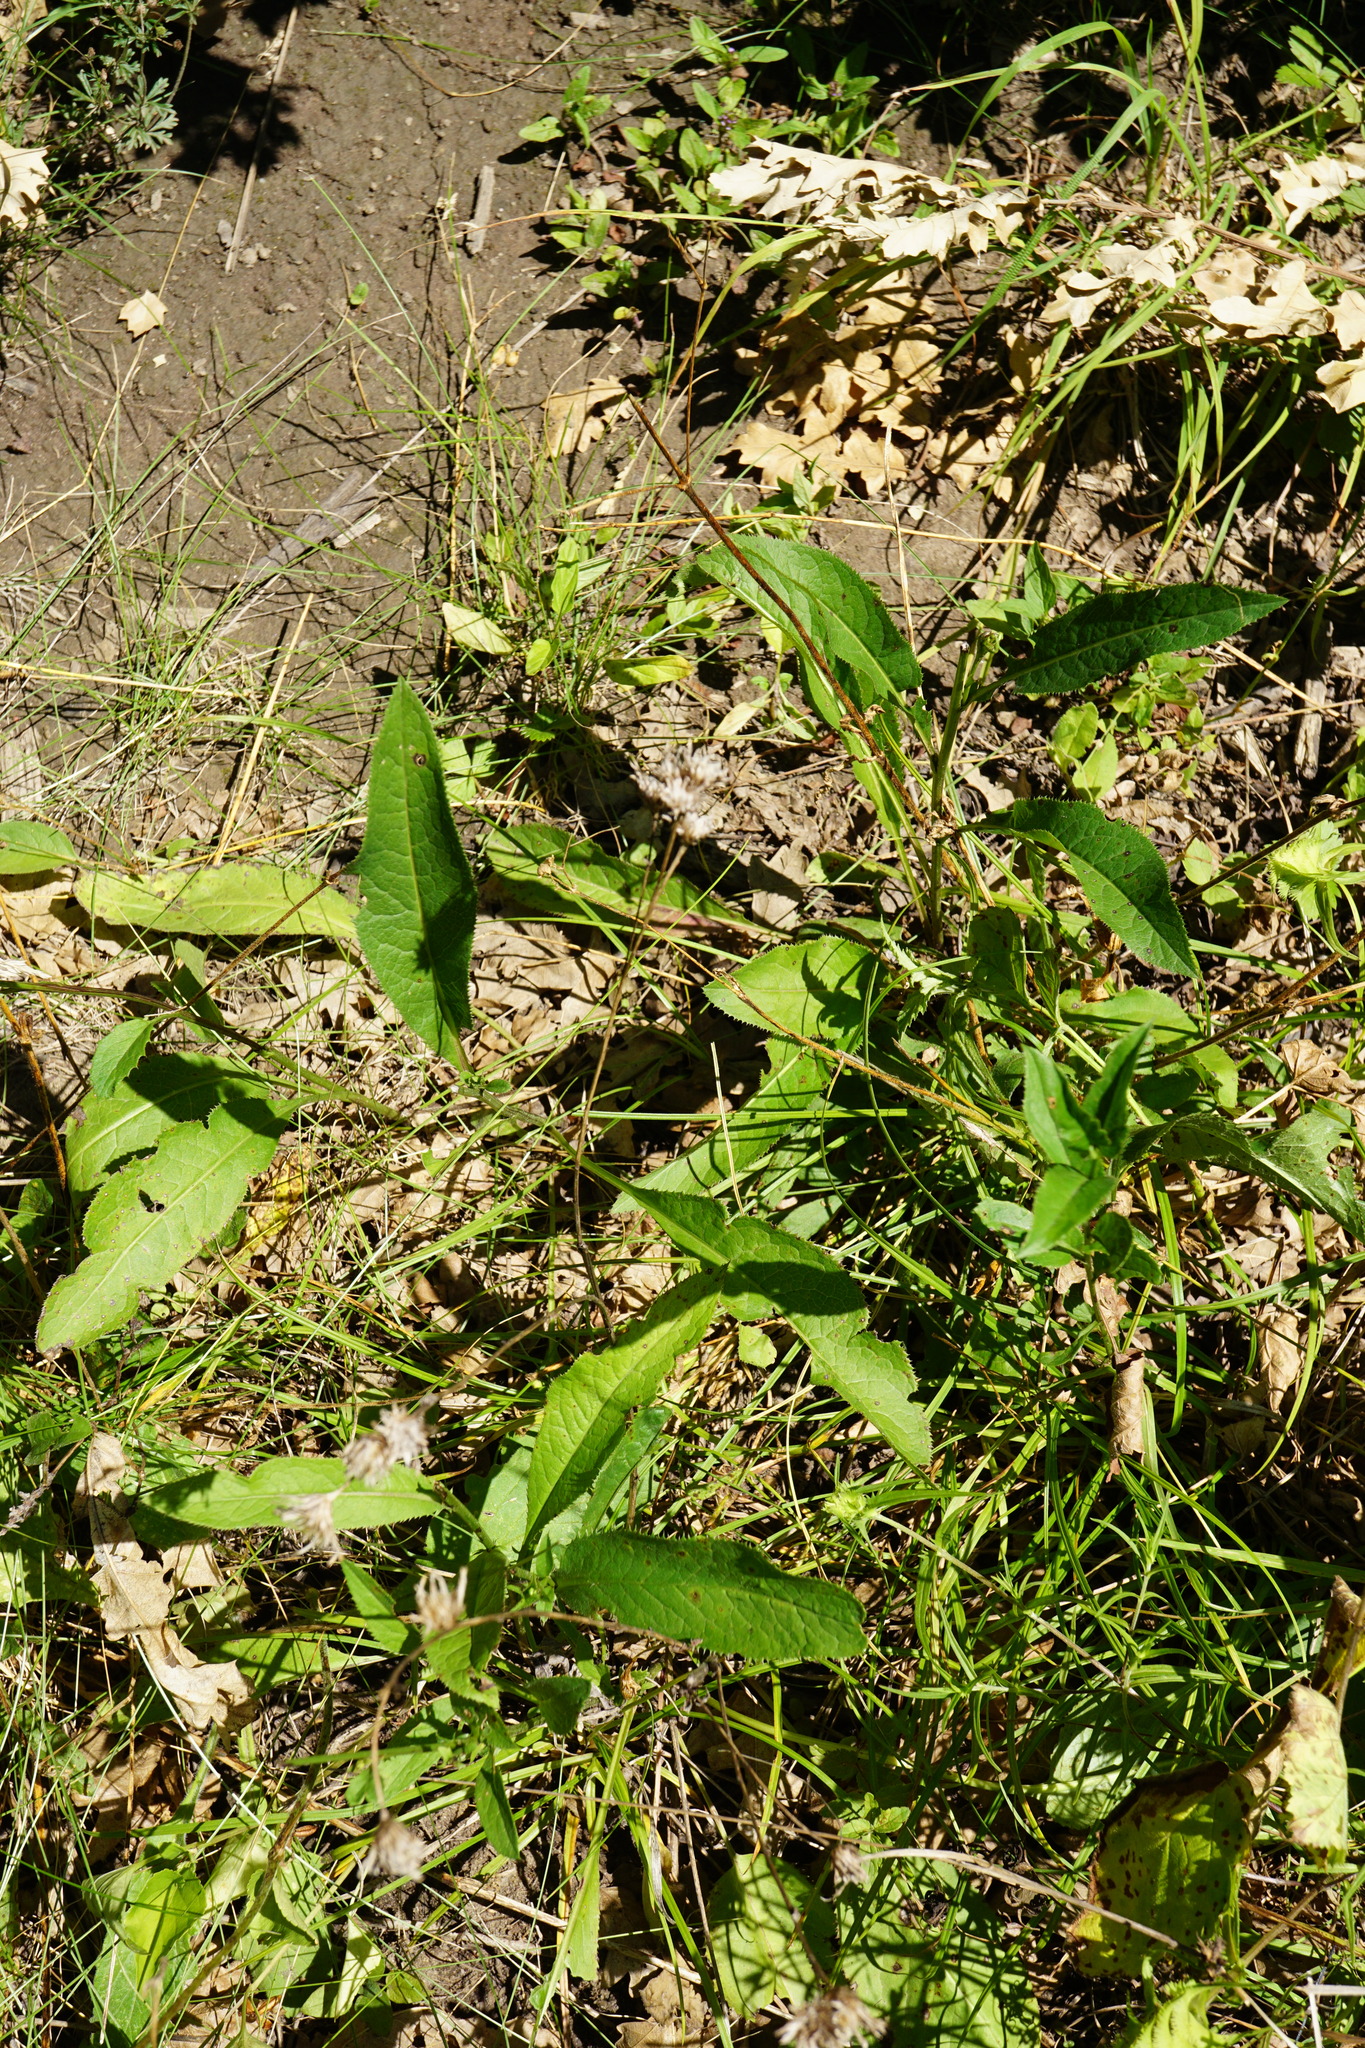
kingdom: Plantae
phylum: Tracheophyta
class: Magnoliopsida
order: Asterales
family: Asteraceae
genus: Serratula
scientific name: Serratula tinctoria
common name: Saw-wort
